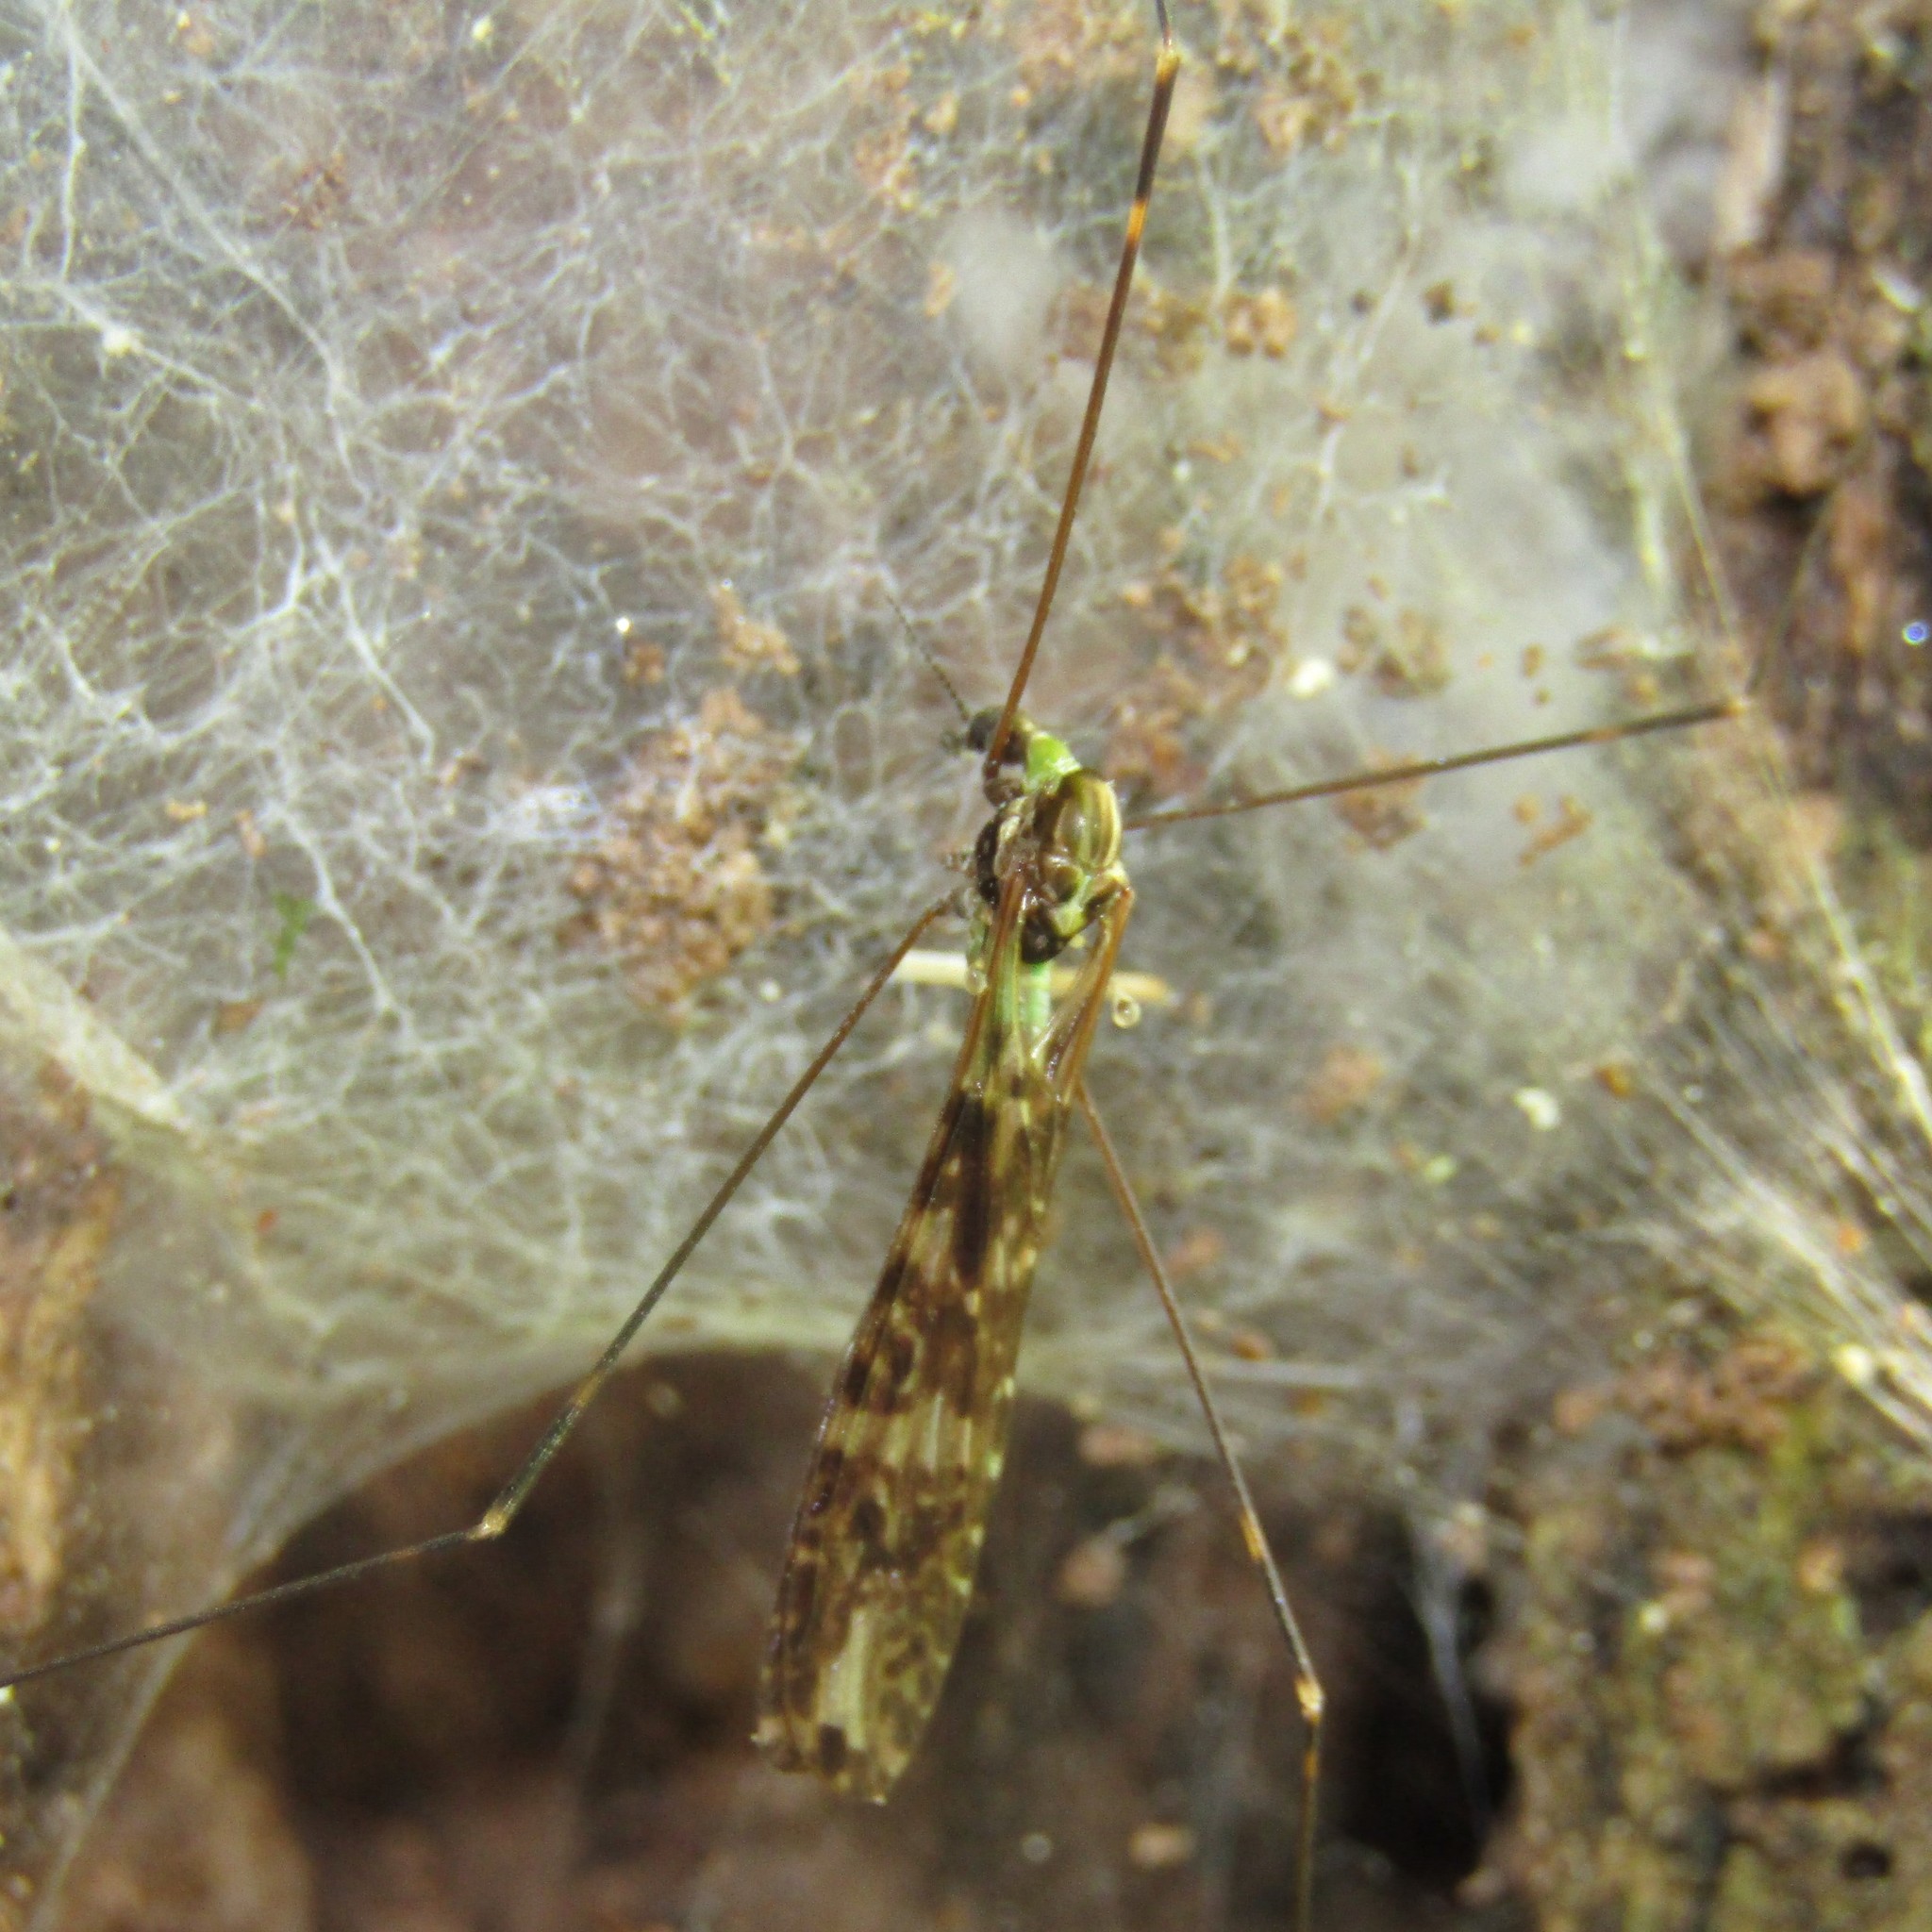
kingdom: Animalia
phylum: Arthropoda
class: Insecta
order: Diptera
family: Limoniidae
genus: Discobola
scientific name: Discobola dohrni
